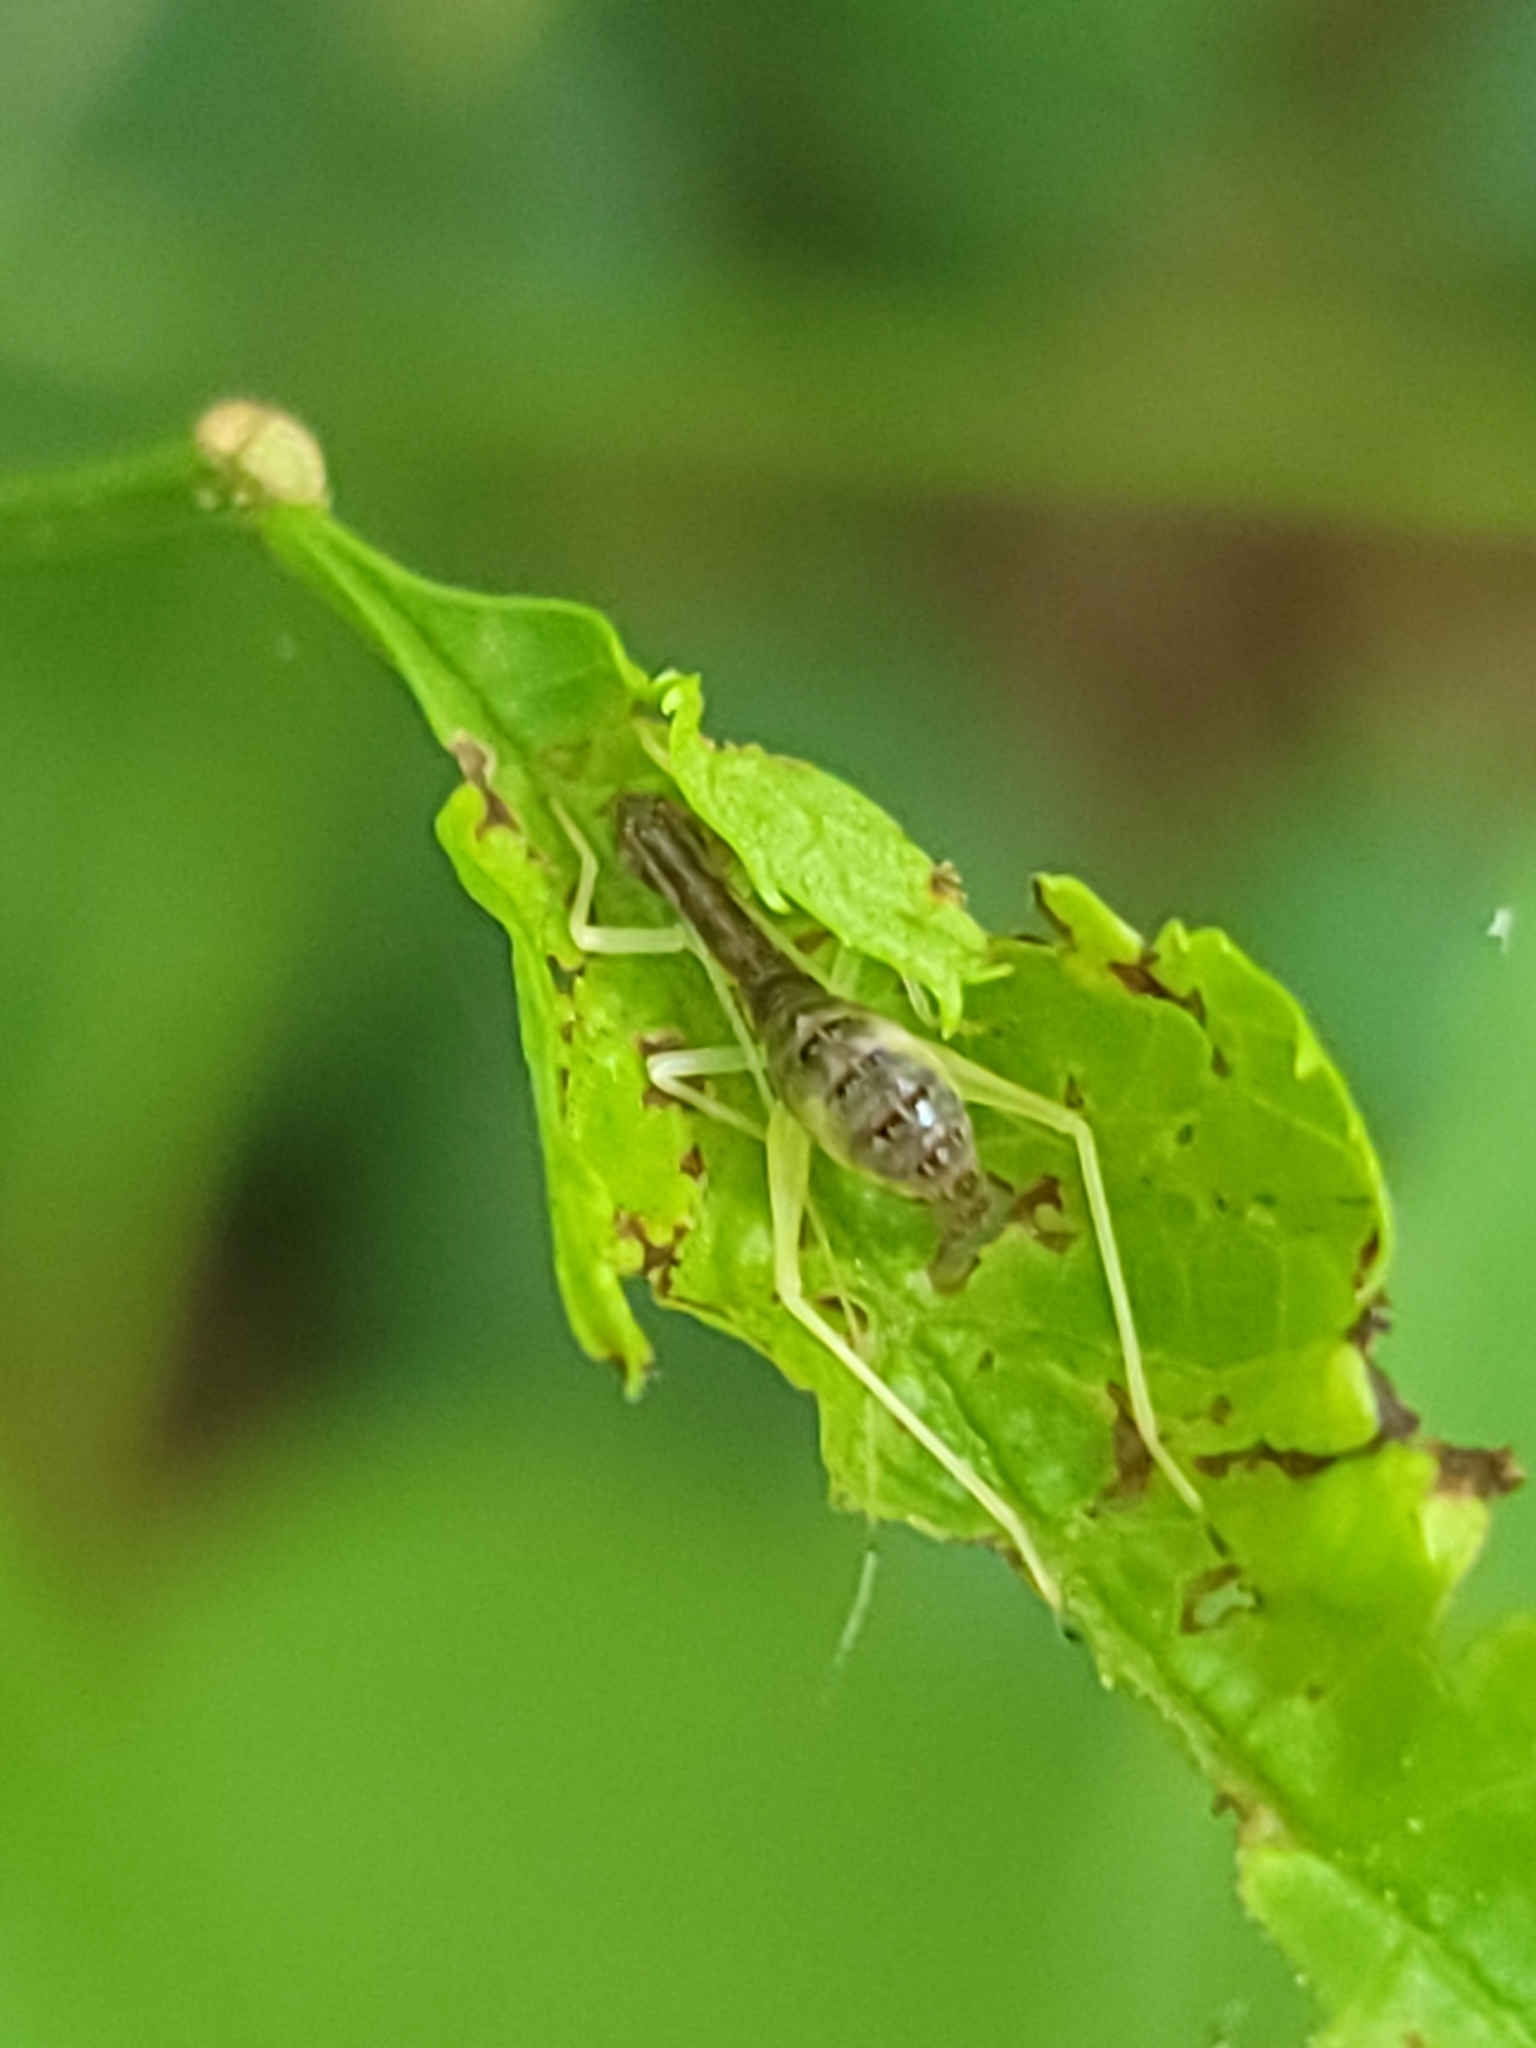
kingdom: Animalia
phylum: Arthropoda
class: Insecta
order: Orthoptera
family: Gryllidae
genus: Neoxabea
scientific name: Neoxabea bipunctata
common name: Two-spotted tree cricket
